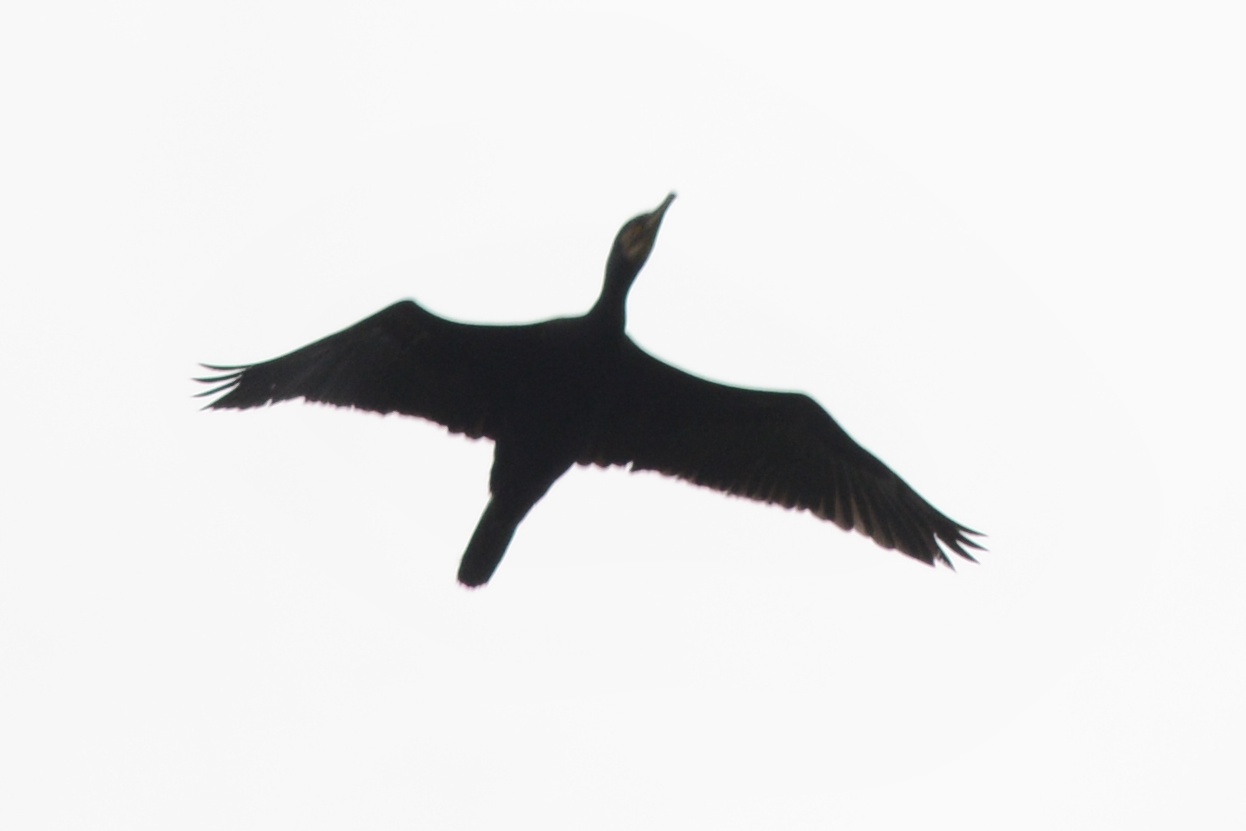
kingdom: Animalia
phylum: Chordata
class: Aves
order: Suliformes
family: Phalacrocoracidae
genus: Phalacrocorax
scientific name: Phalacrocorax carbo
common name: Great cormorant
